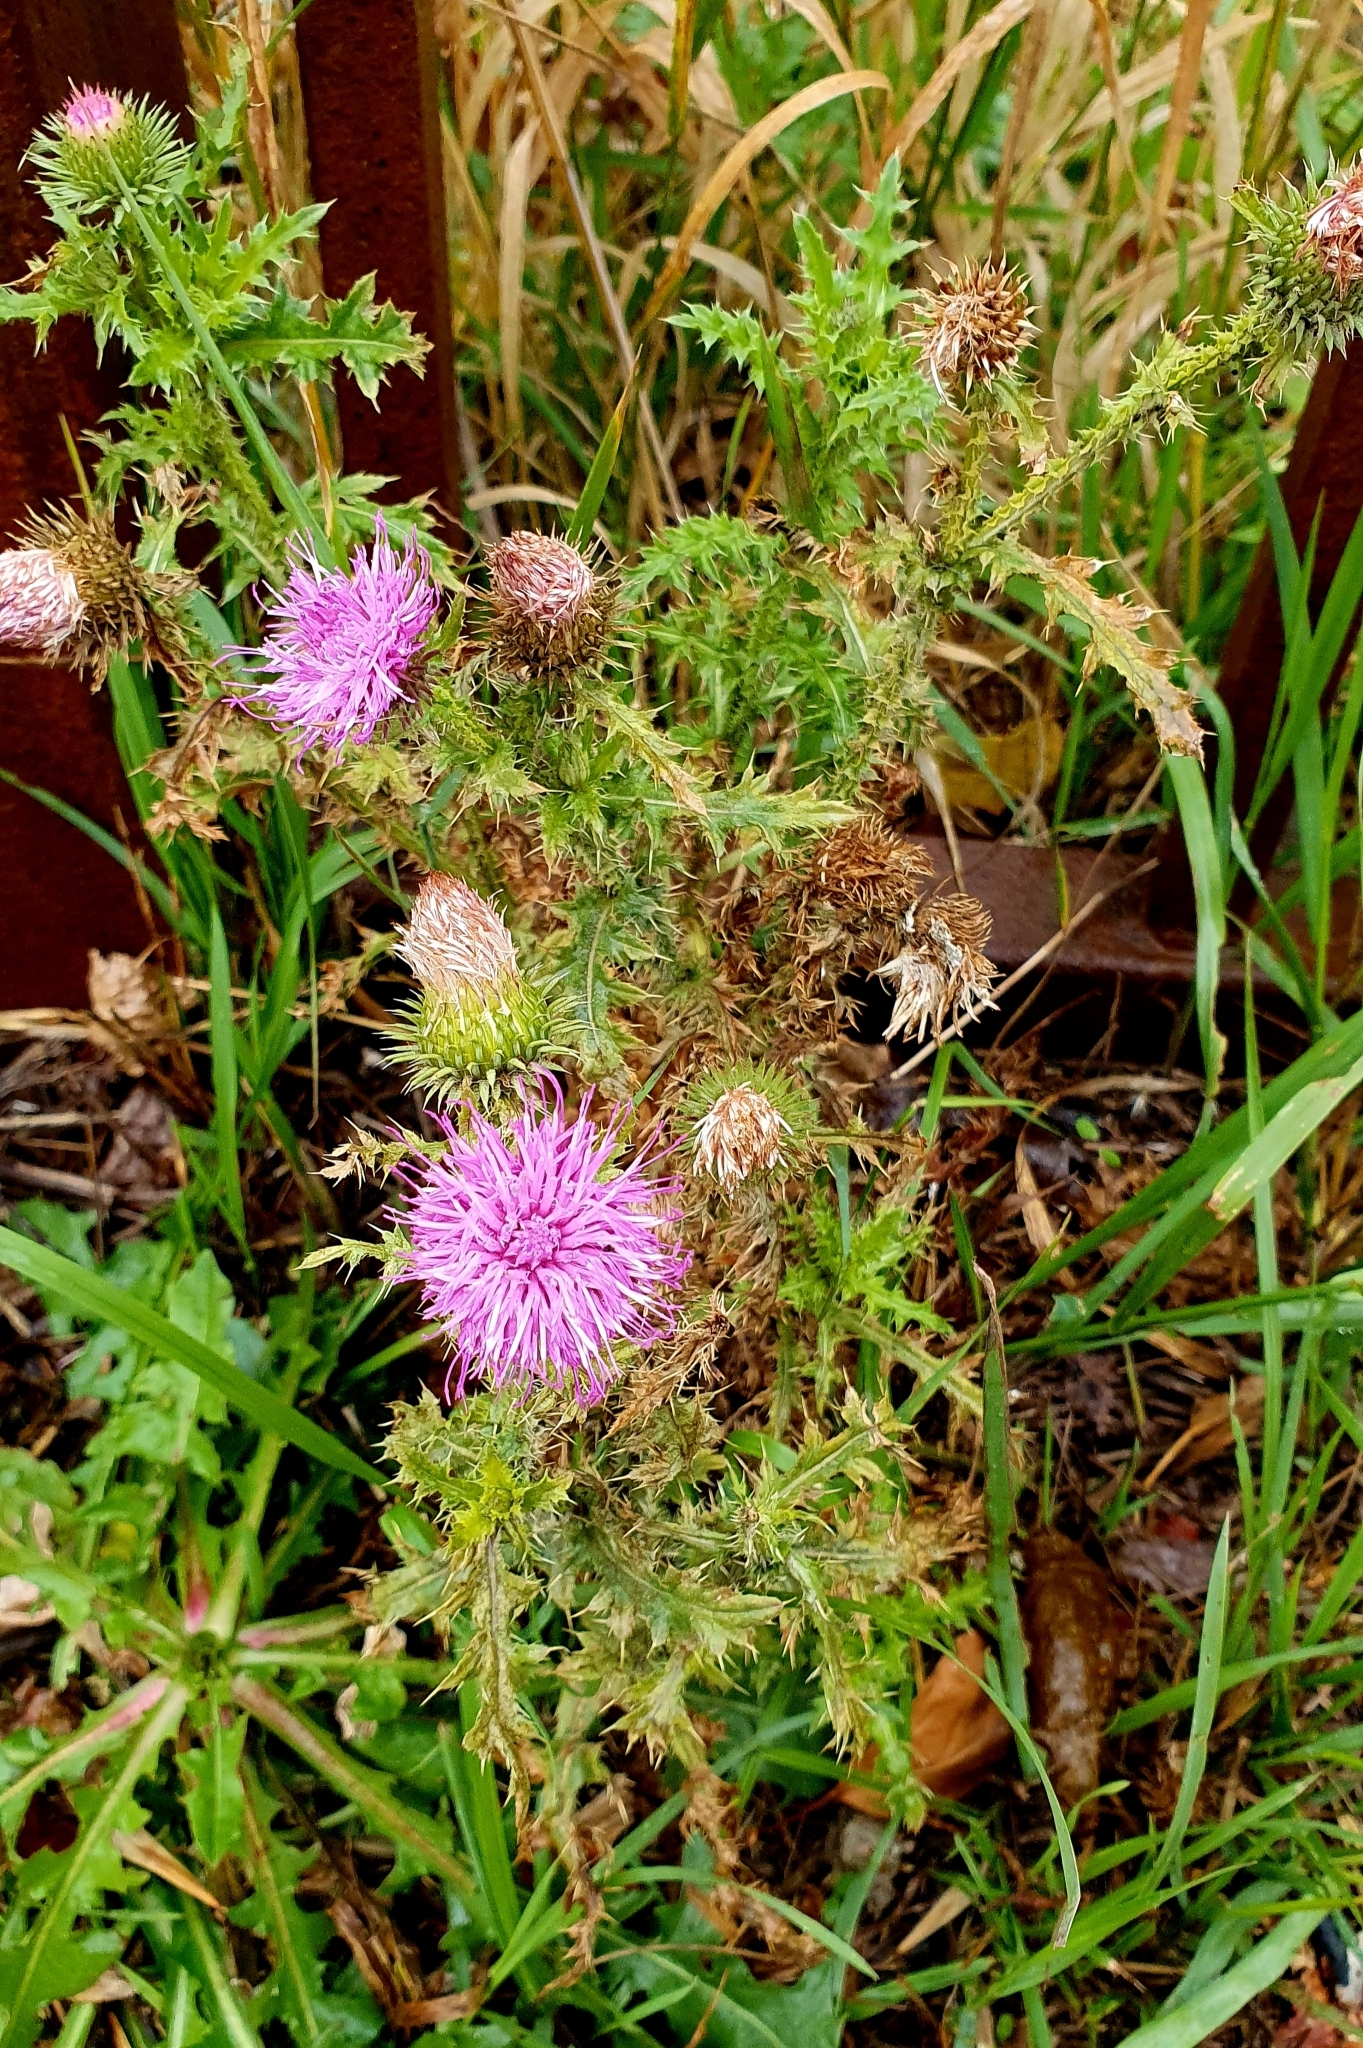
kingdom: Plantae
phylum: Tracheophyta
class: Magnoliopsida
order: Asterales
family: Asteraceae
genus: Carduus
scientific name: Carduus acanthoides
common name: Plumeless thistle
